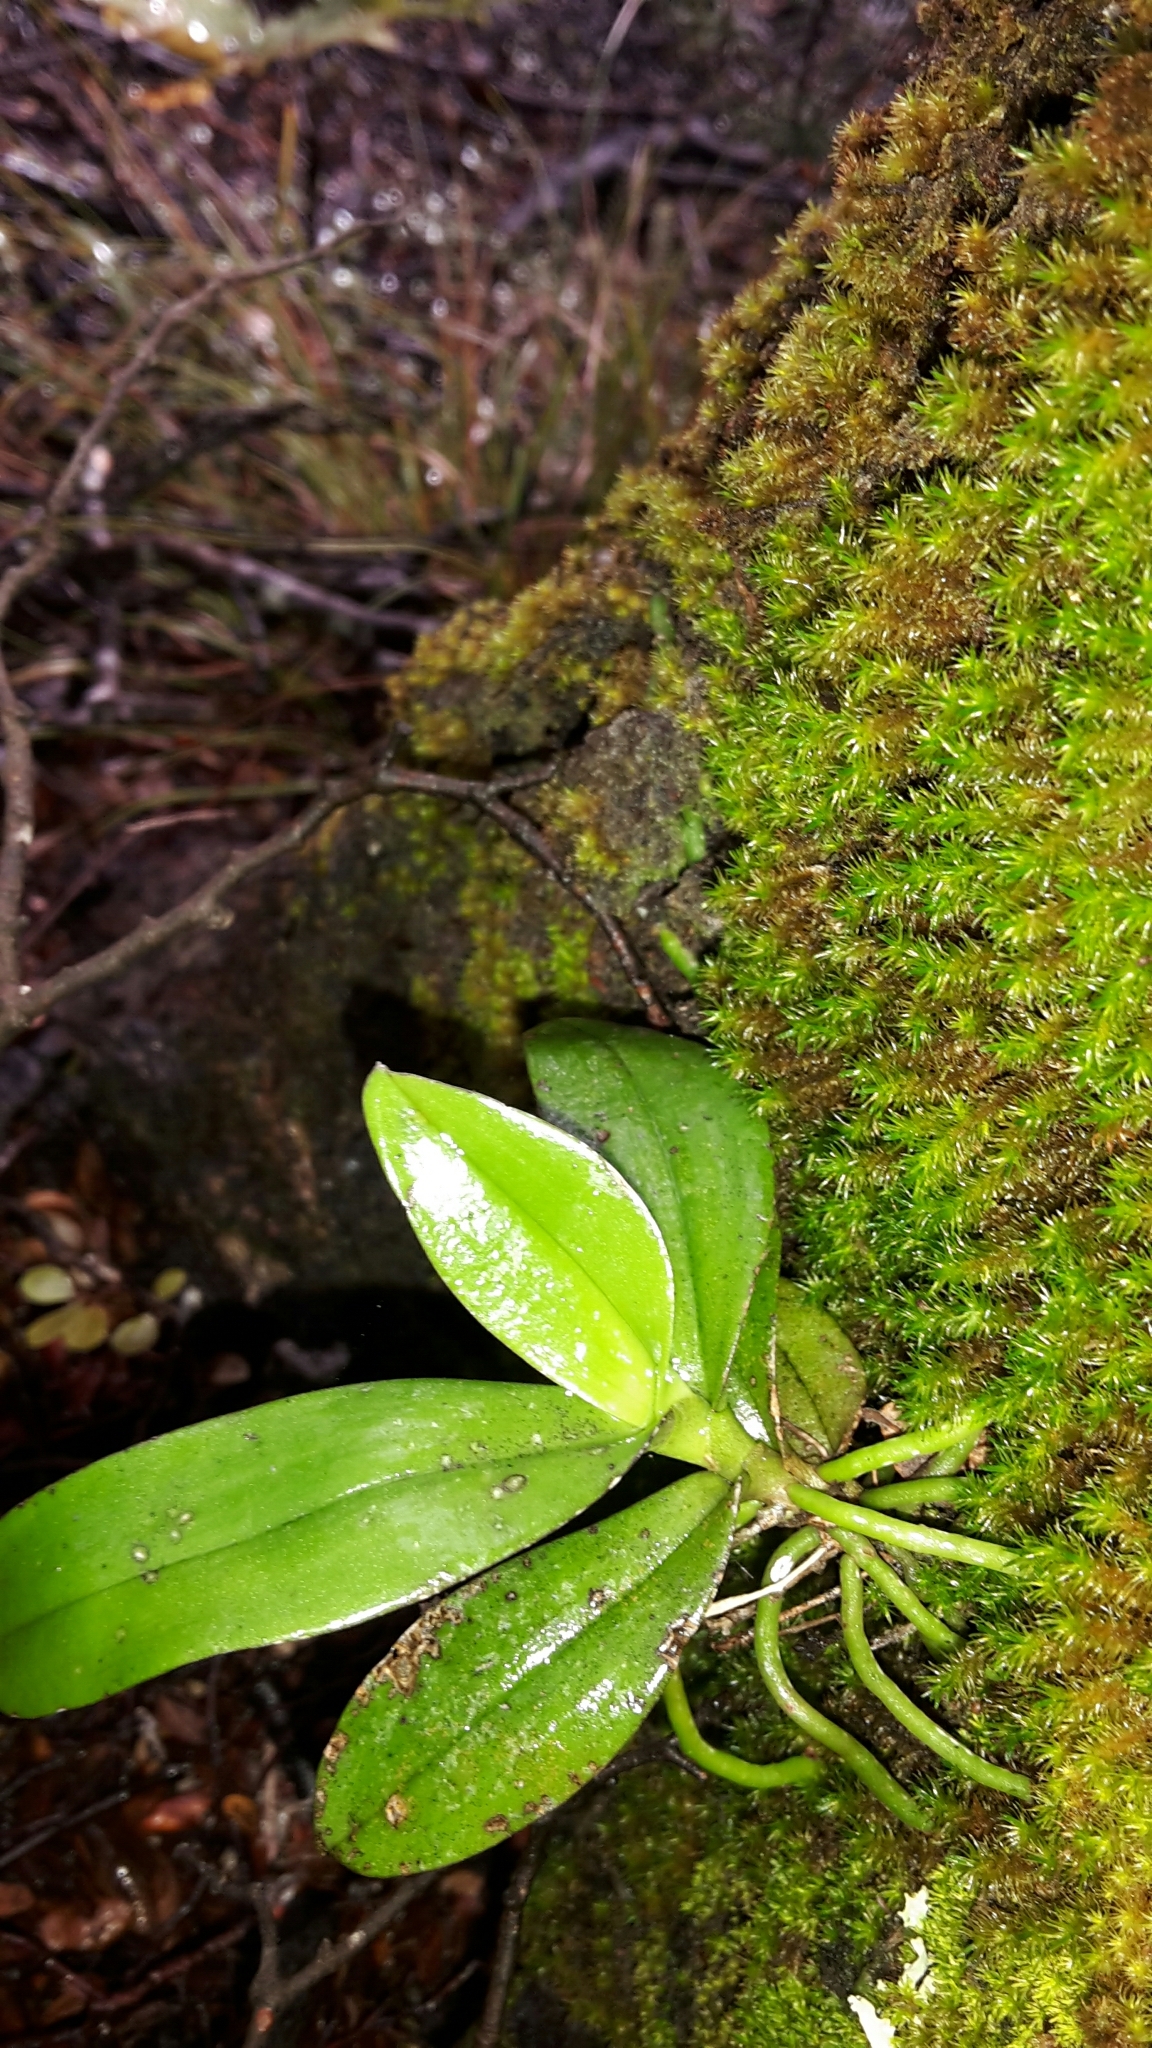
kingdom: Plantae
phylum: Tracheophyta
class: Liliopsida
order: Asparagales
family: Orchidaceae
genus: Drymoanthus
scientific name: Drymoanthus adversus
